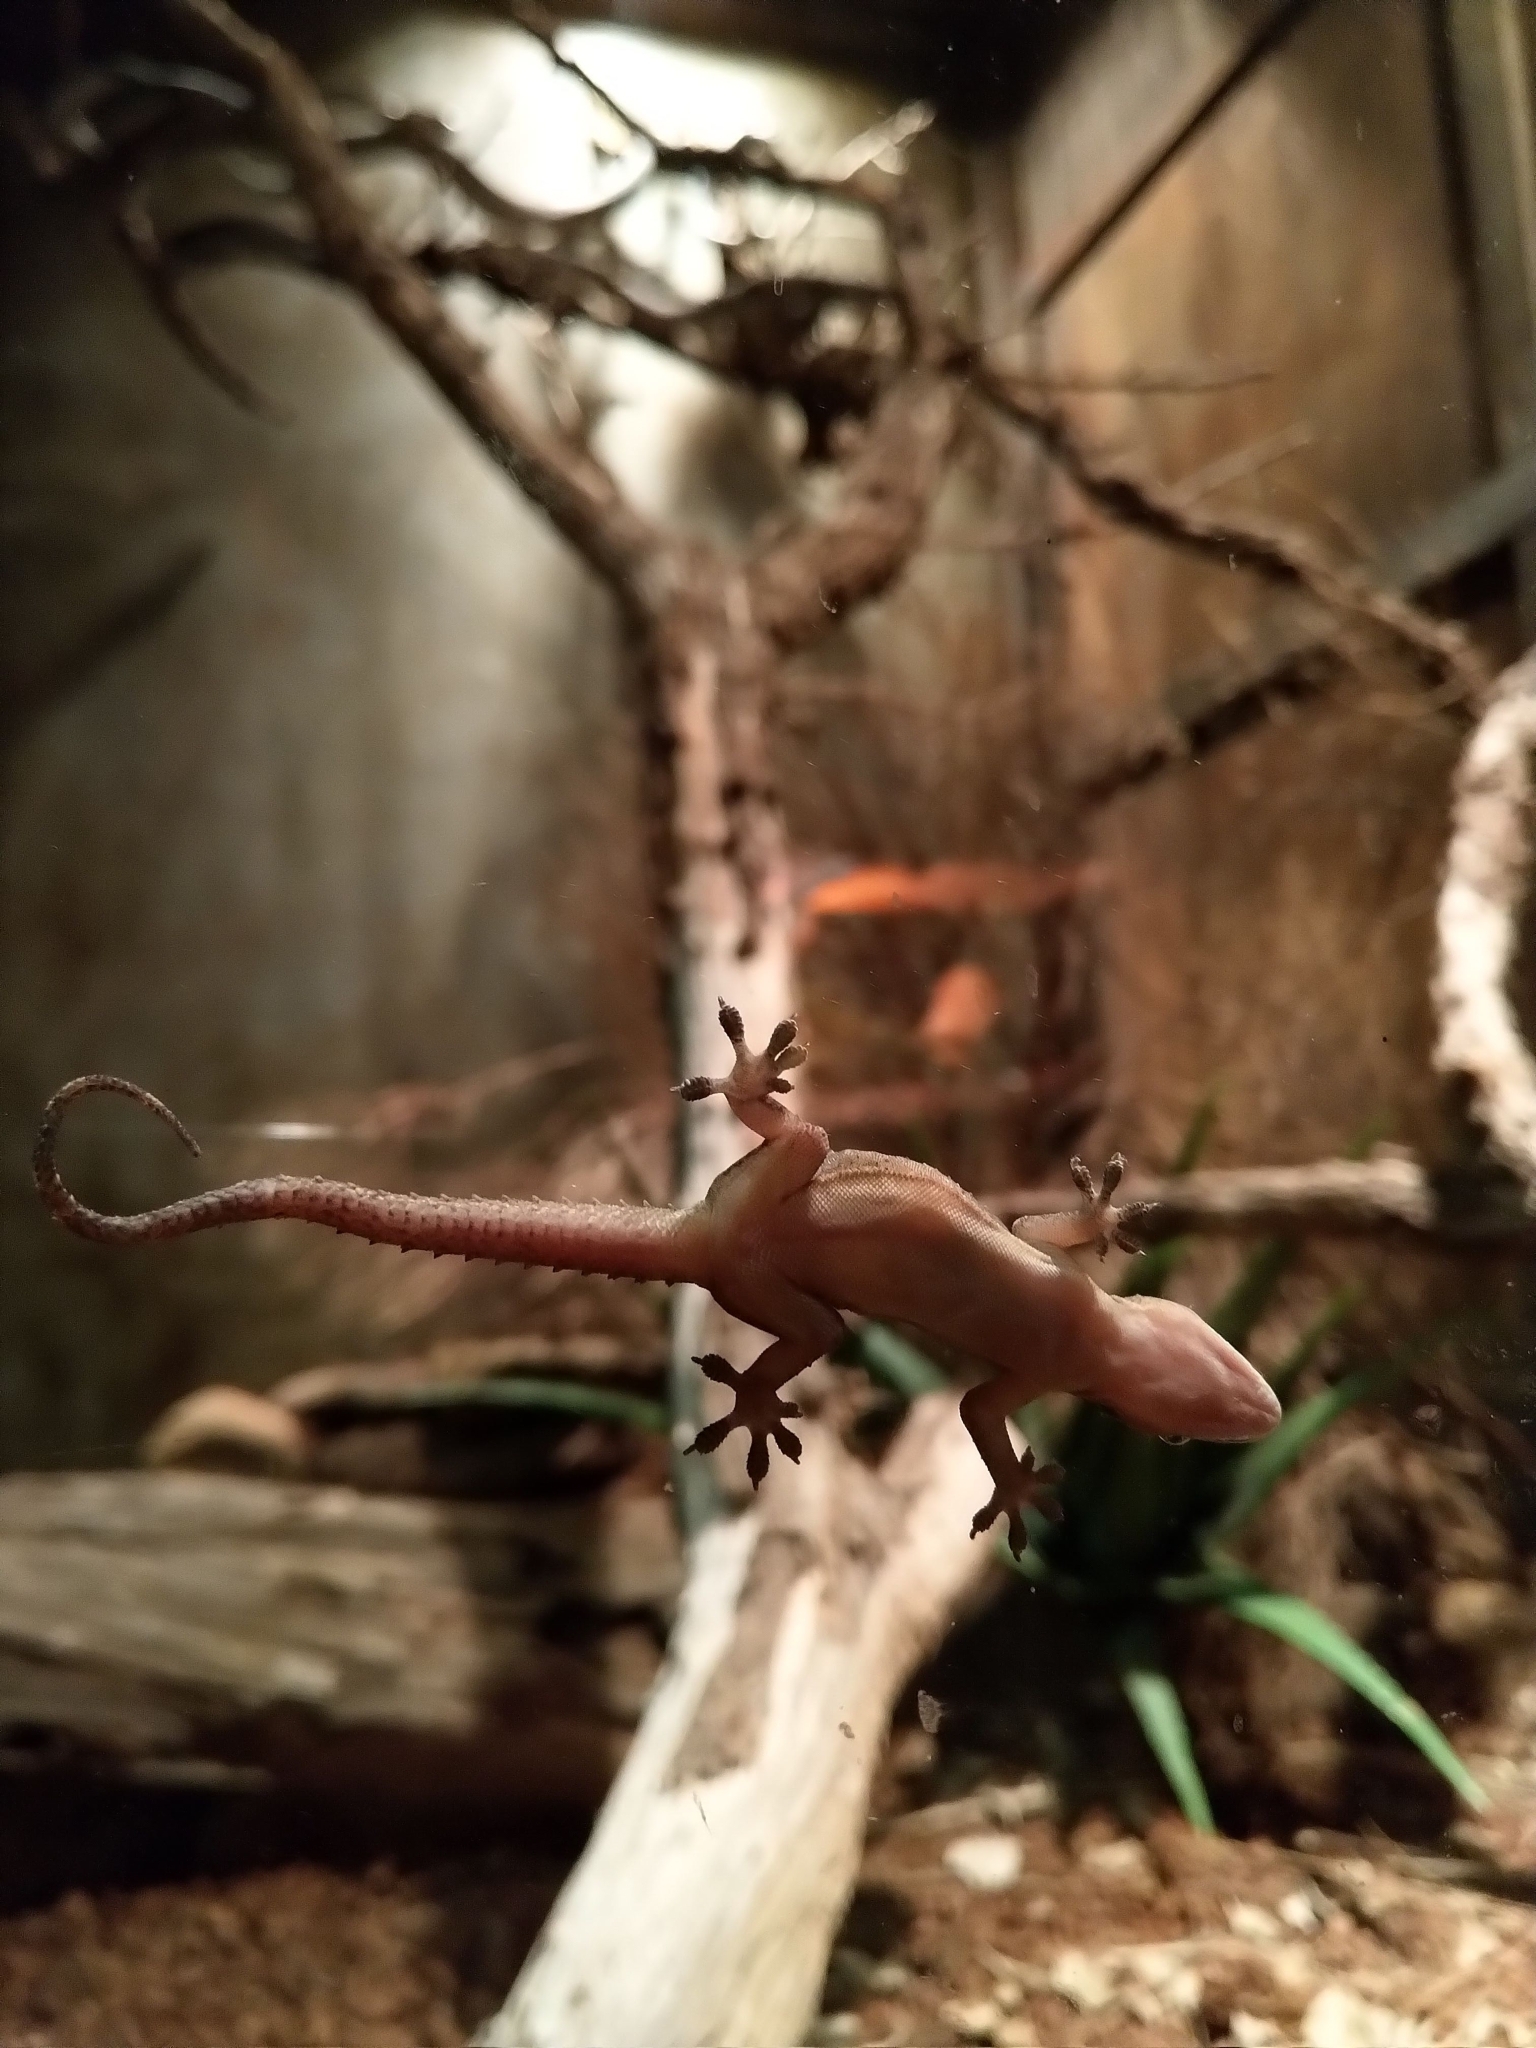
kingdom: Animalia
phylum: Chordata
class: Squamata
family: Gekkonidae
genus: Hemidactylus
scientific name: Hemidactylus mabouia
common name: House gecko
